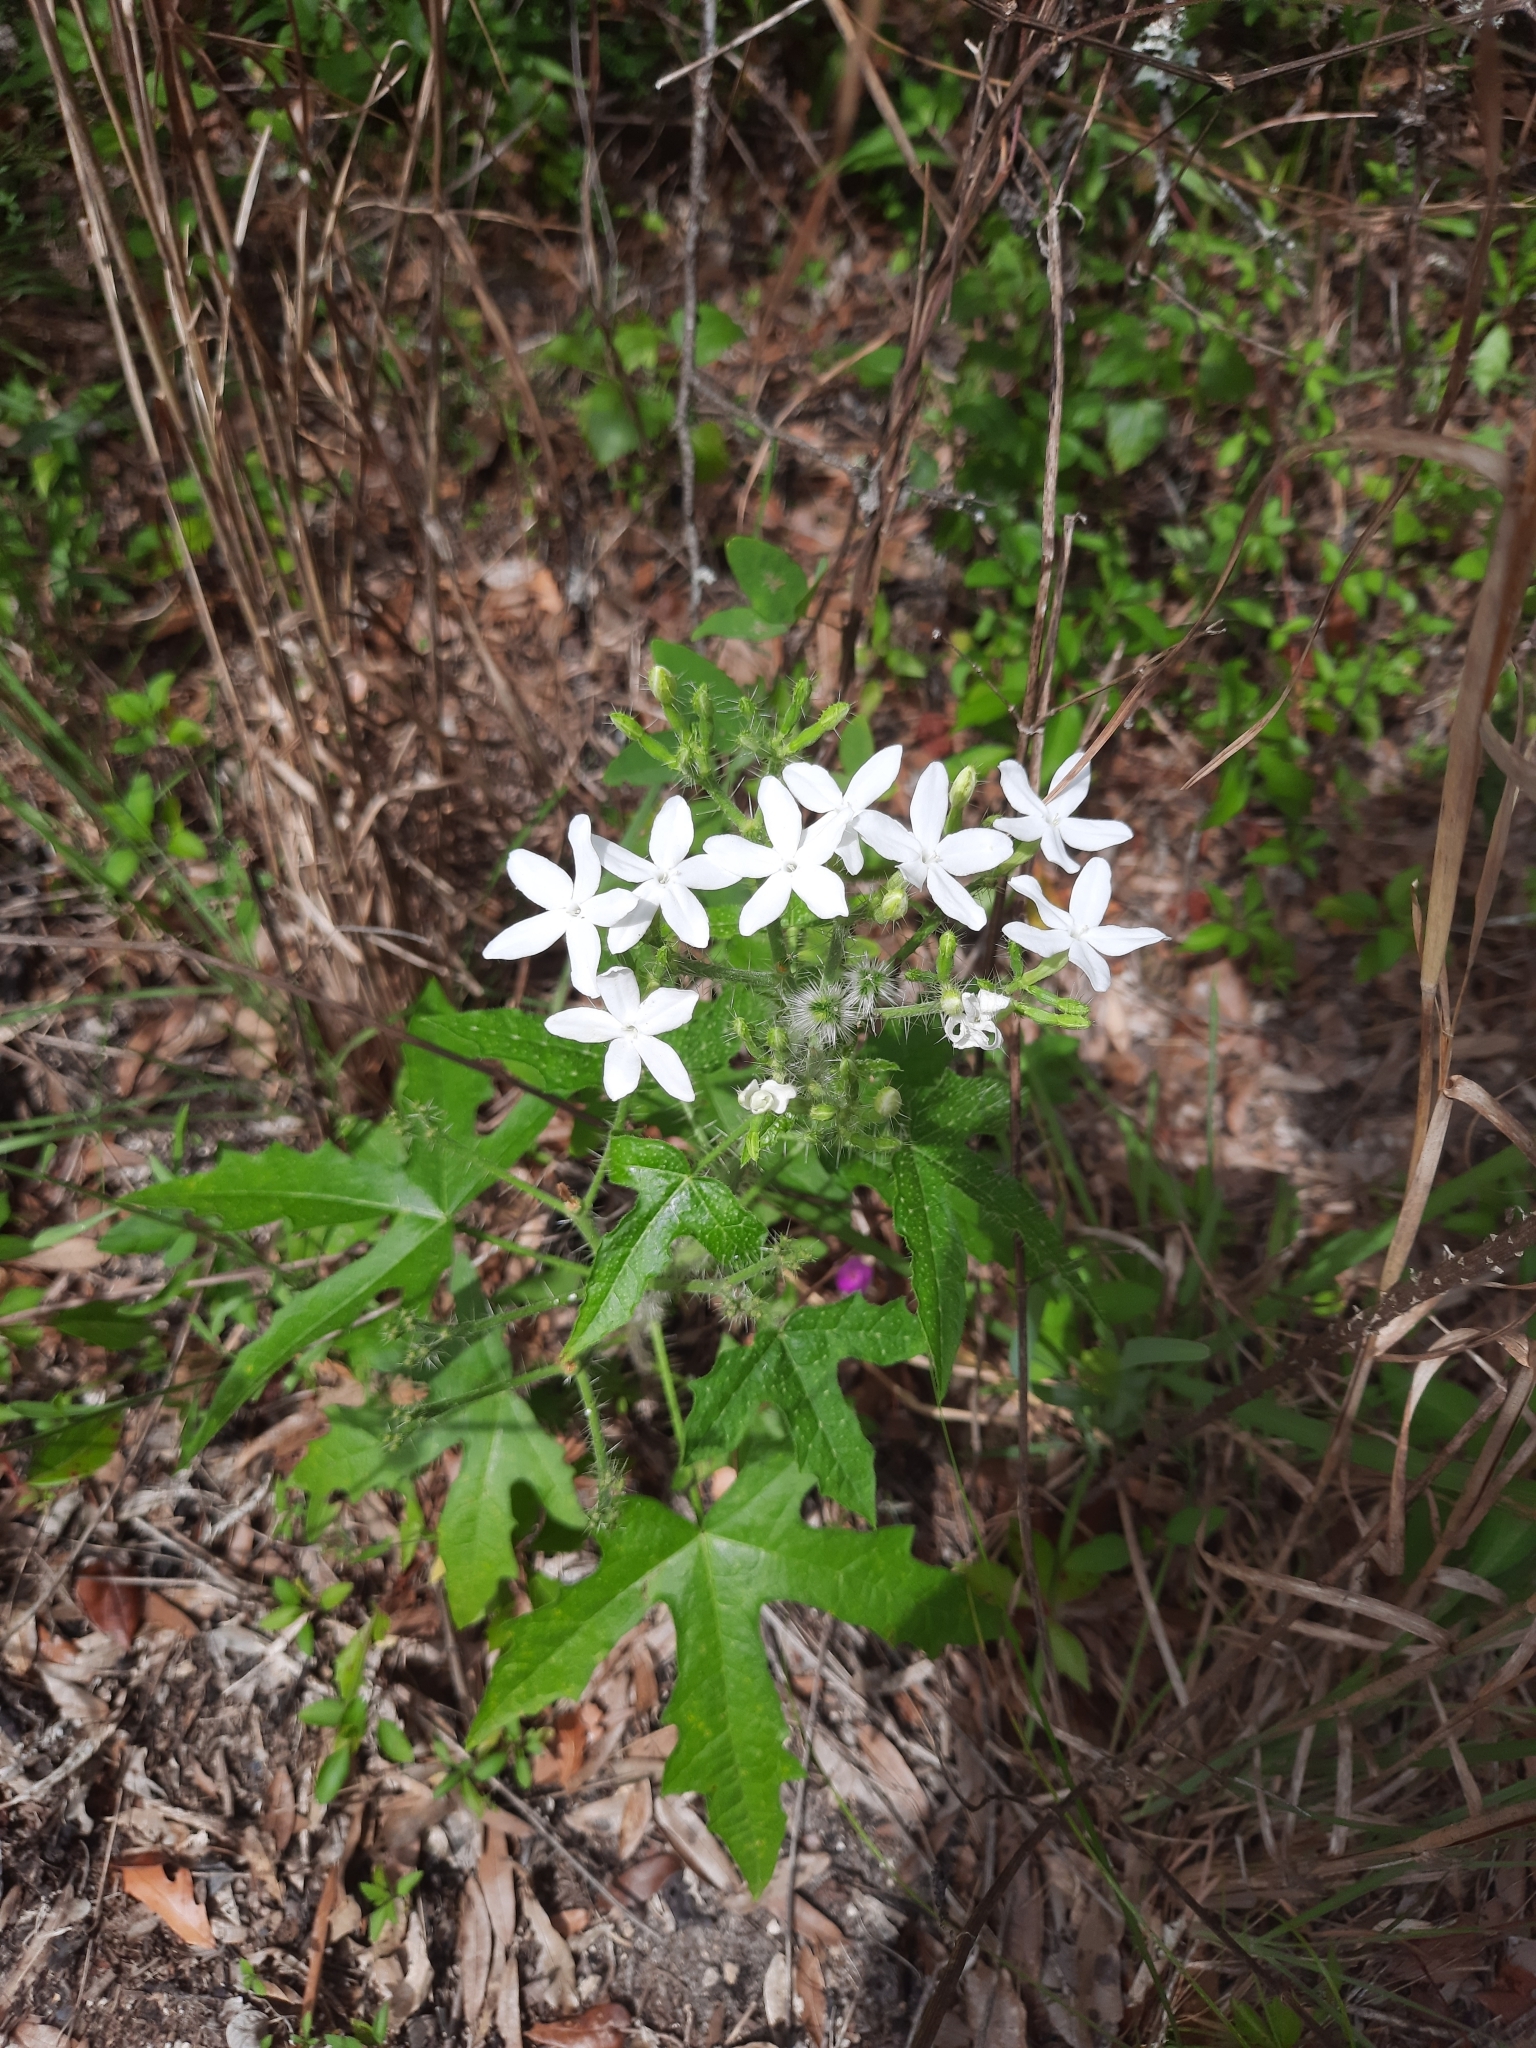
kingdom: Plantae
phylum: Tracheophyta
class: Magnoliopsida
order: Malpighiales
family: Euphorbiaceae
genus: Cnidoscolus
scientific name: Cnidoscolus stimulosus
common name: Bull-nettle
